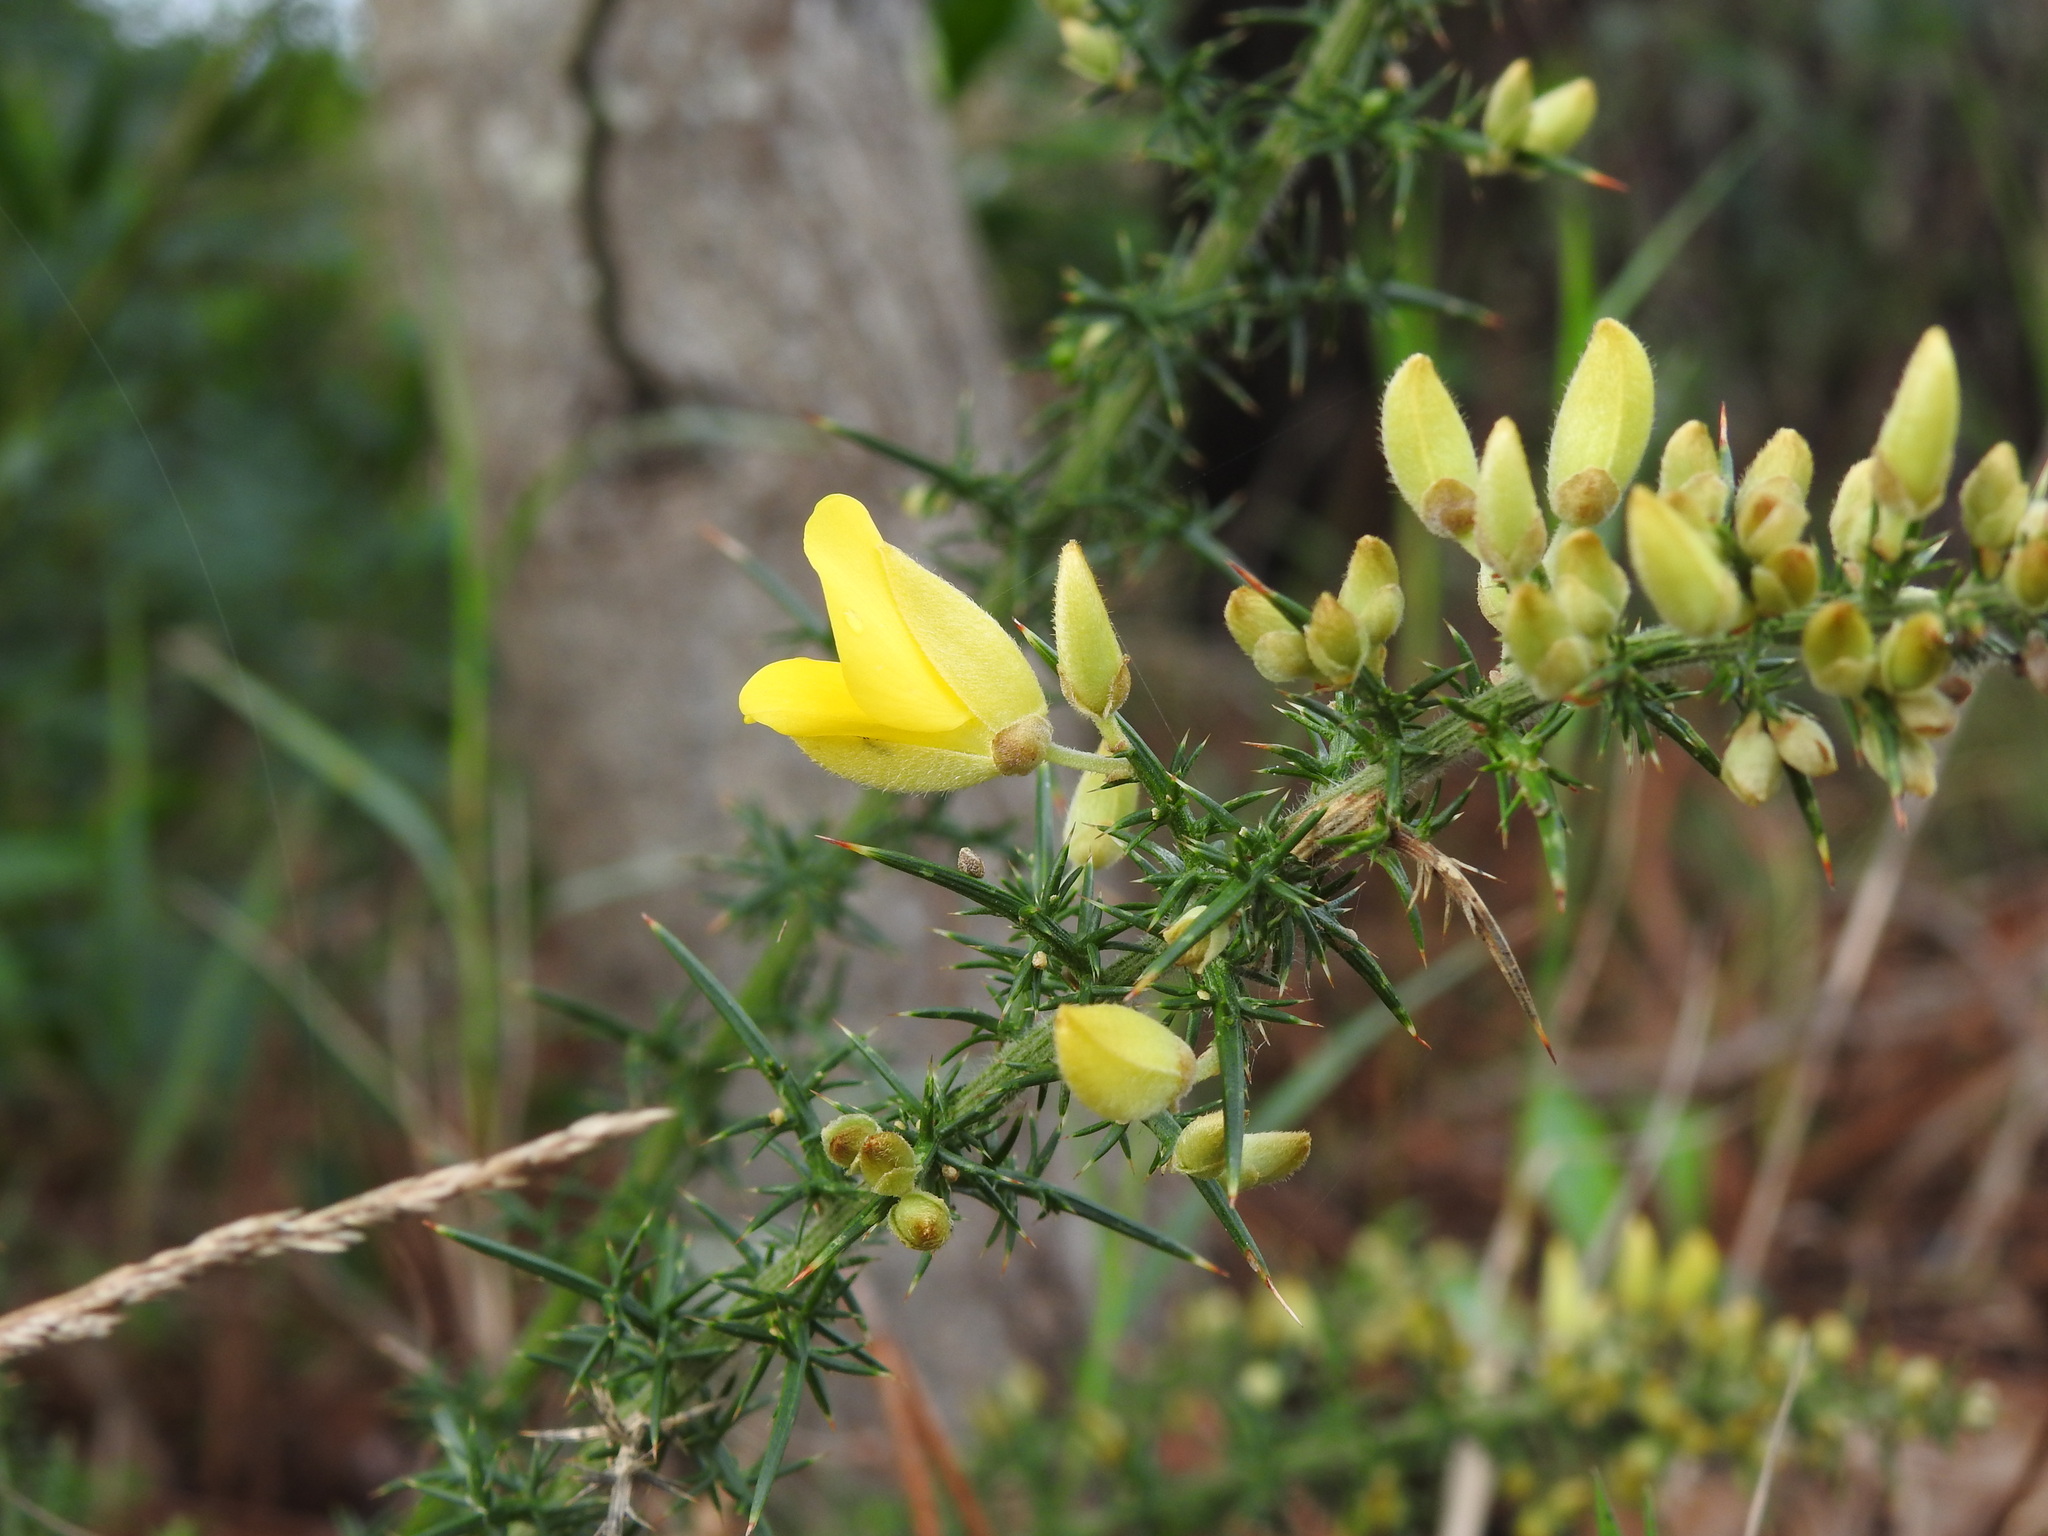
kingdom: Plantae
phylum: Tracheophyta
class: Magnoliopsida
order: Fabales
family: Fabaceae
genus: Ulex
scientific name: Ulex europaeus
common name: Common gorse
